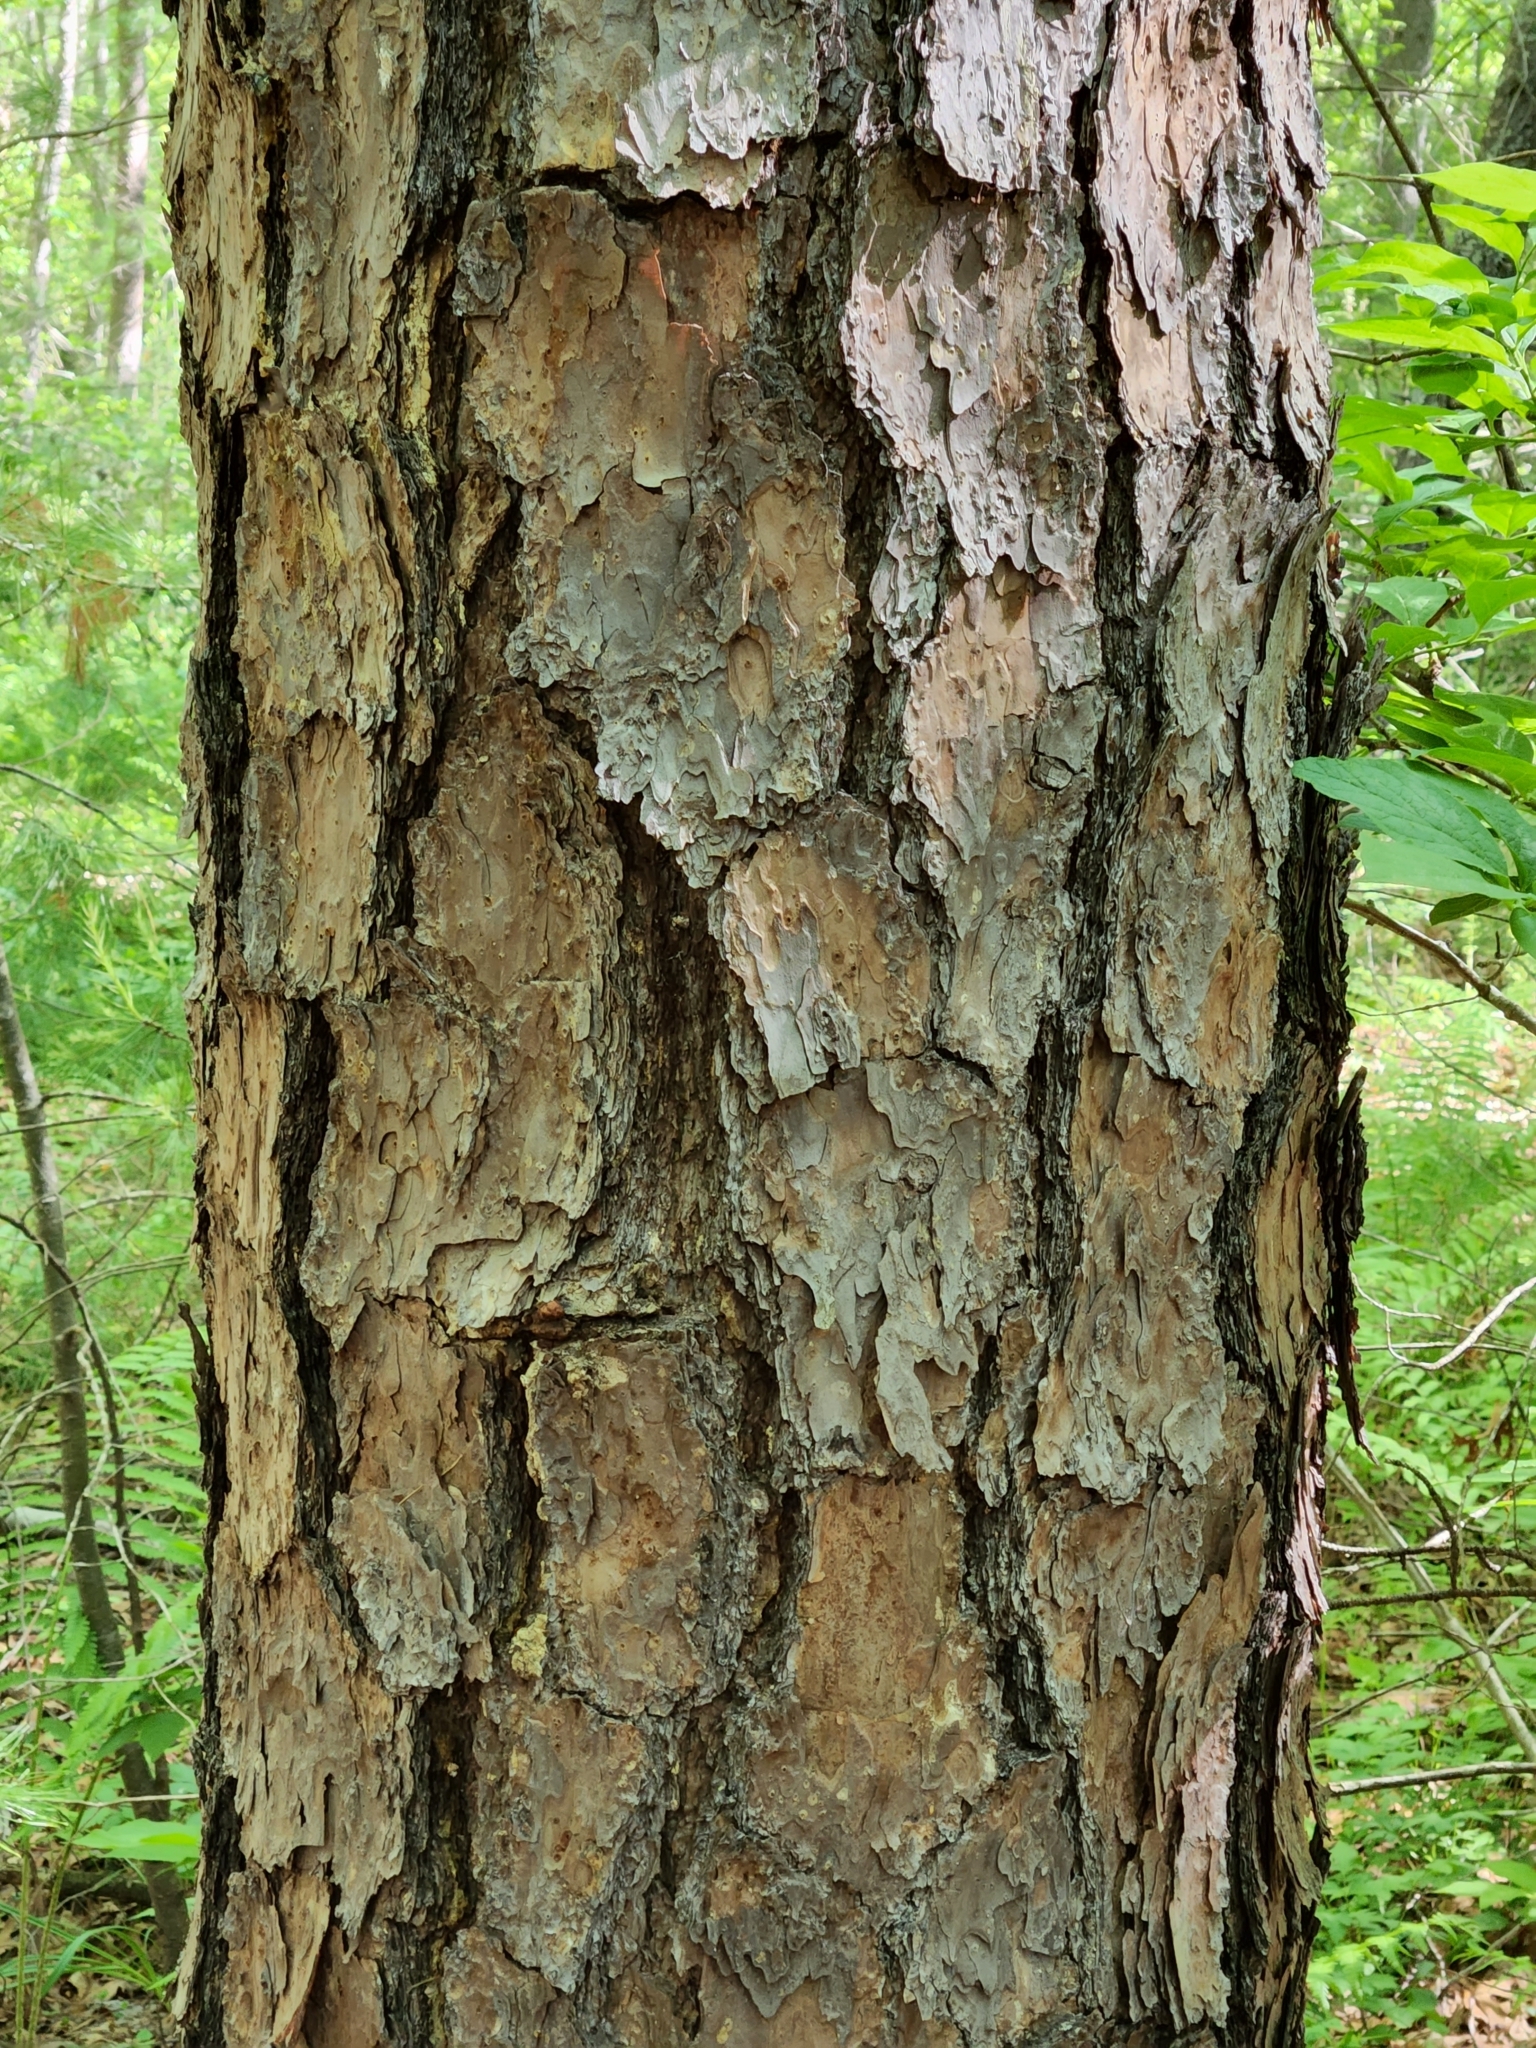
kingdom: Plantae
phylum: Tracheophyta
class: Pinopsida
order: Pinales
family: Pinaceae
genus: Pinus
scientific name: Pinus echinata
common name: Shortleaf pine
